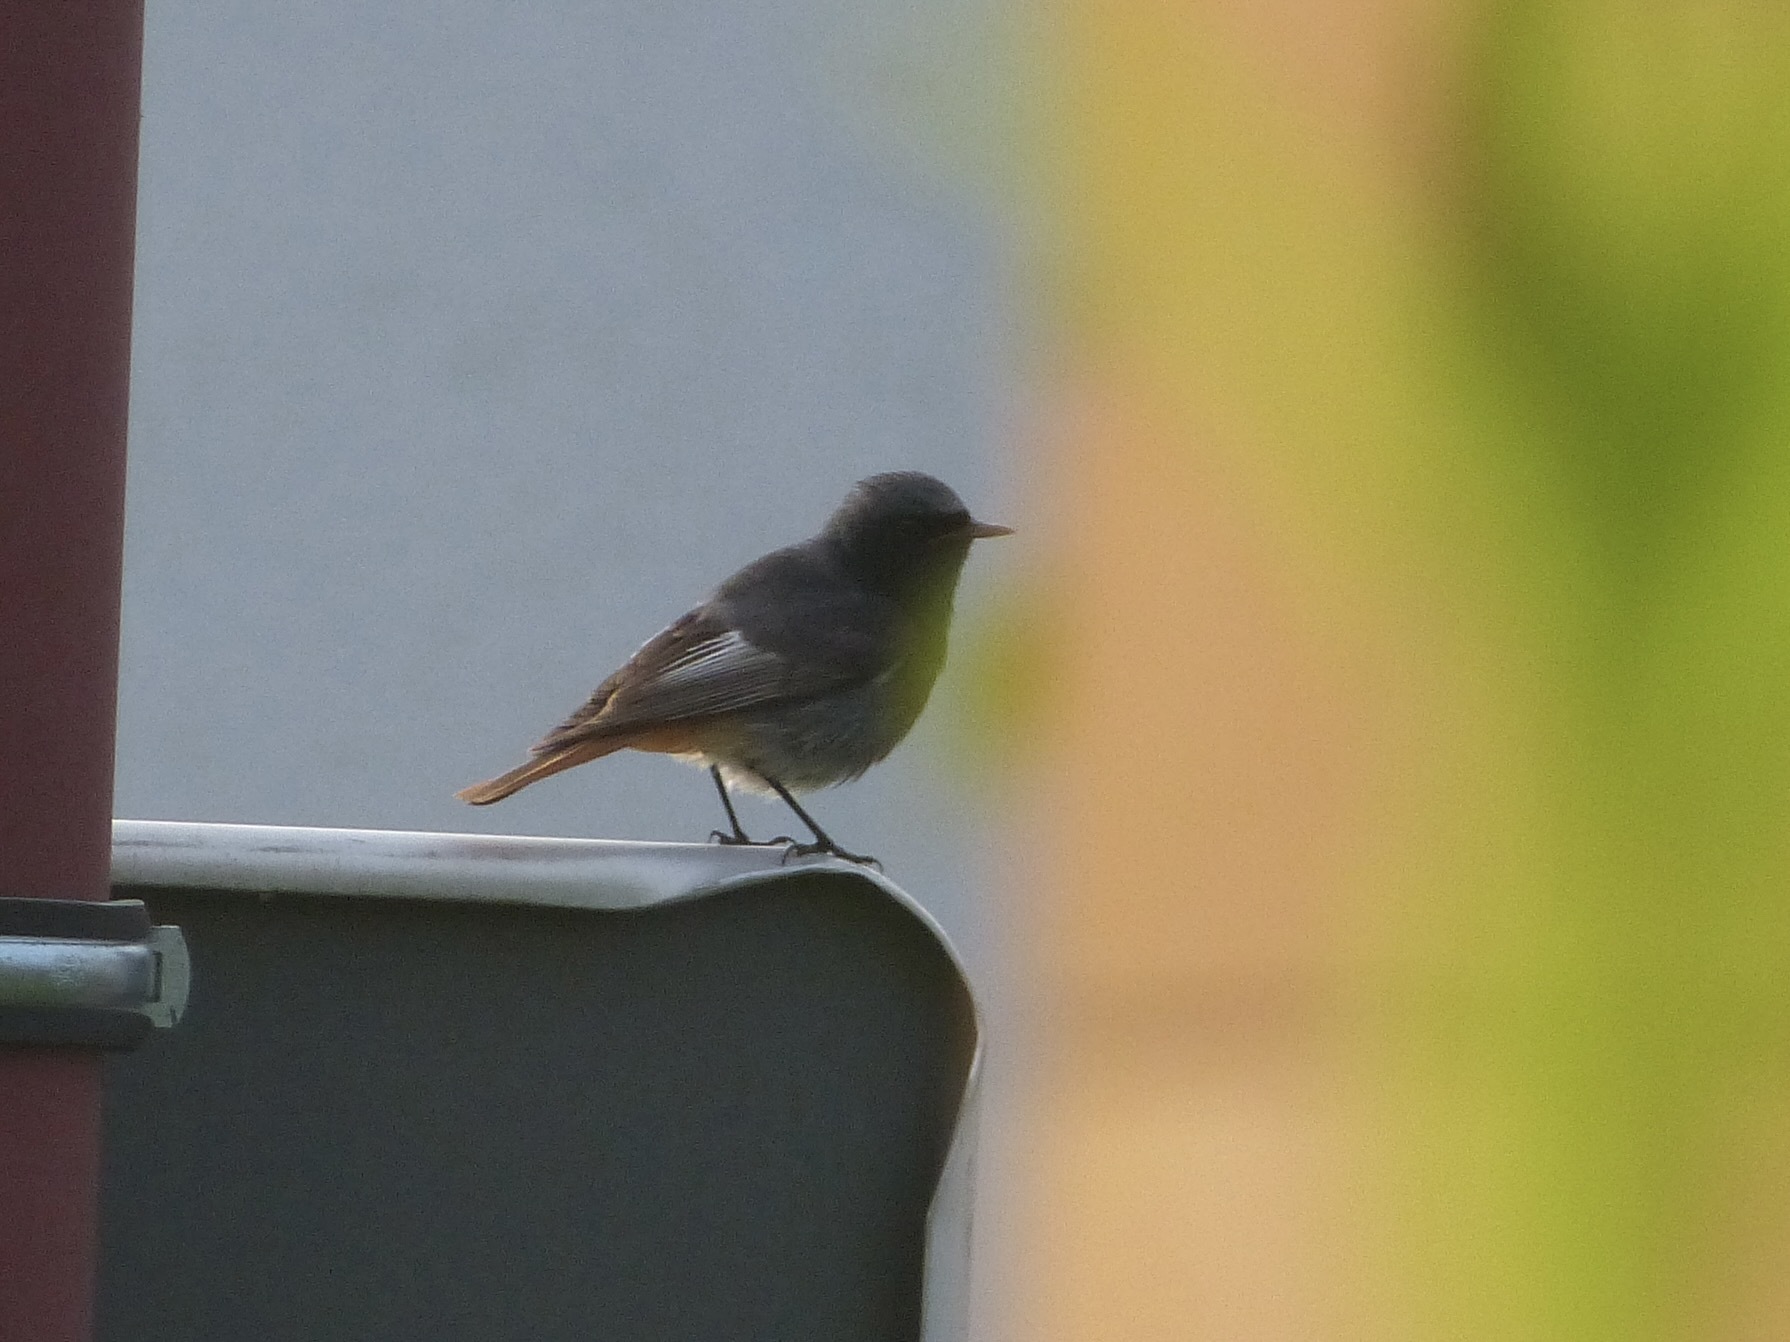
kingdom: Animalia
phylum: Chordata
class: Aves
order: Passeriformes
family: Muscicapidae
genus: Phoenicurus
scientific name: Phoenicurus ochruros
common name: Black redstart
